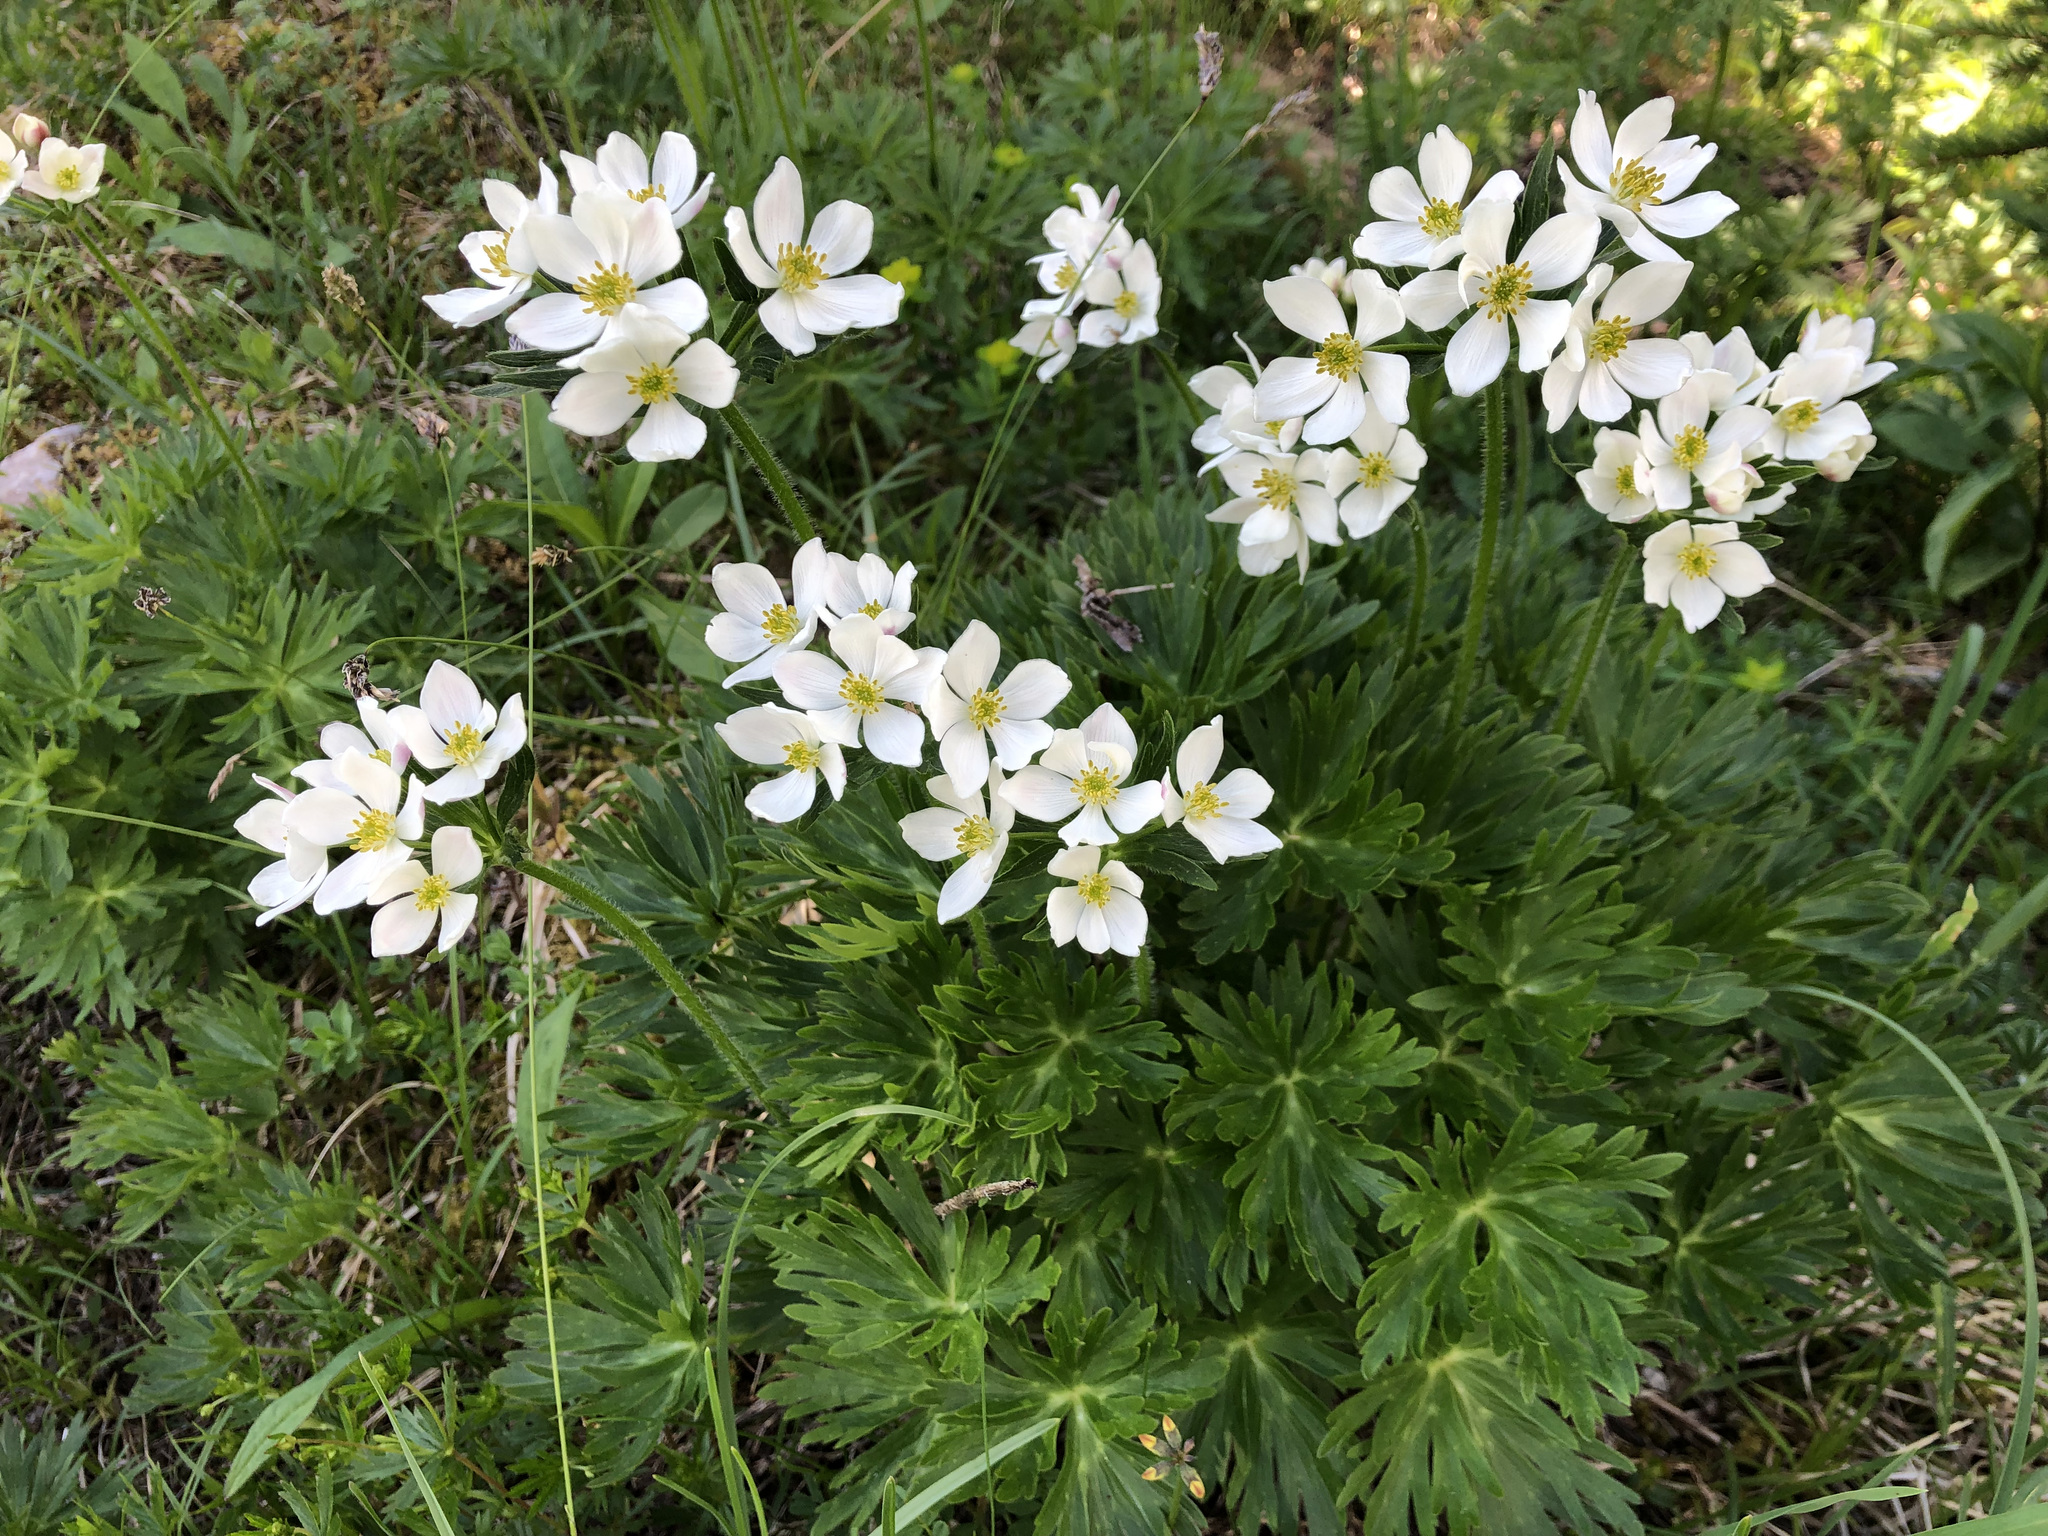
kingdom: Plantae
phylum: Tracheophyta
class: Magnoliopsida
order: Ranunculales
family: Ranunculaceae
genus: Anemonastrum
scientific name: Anemonastrum narcissiflorum
